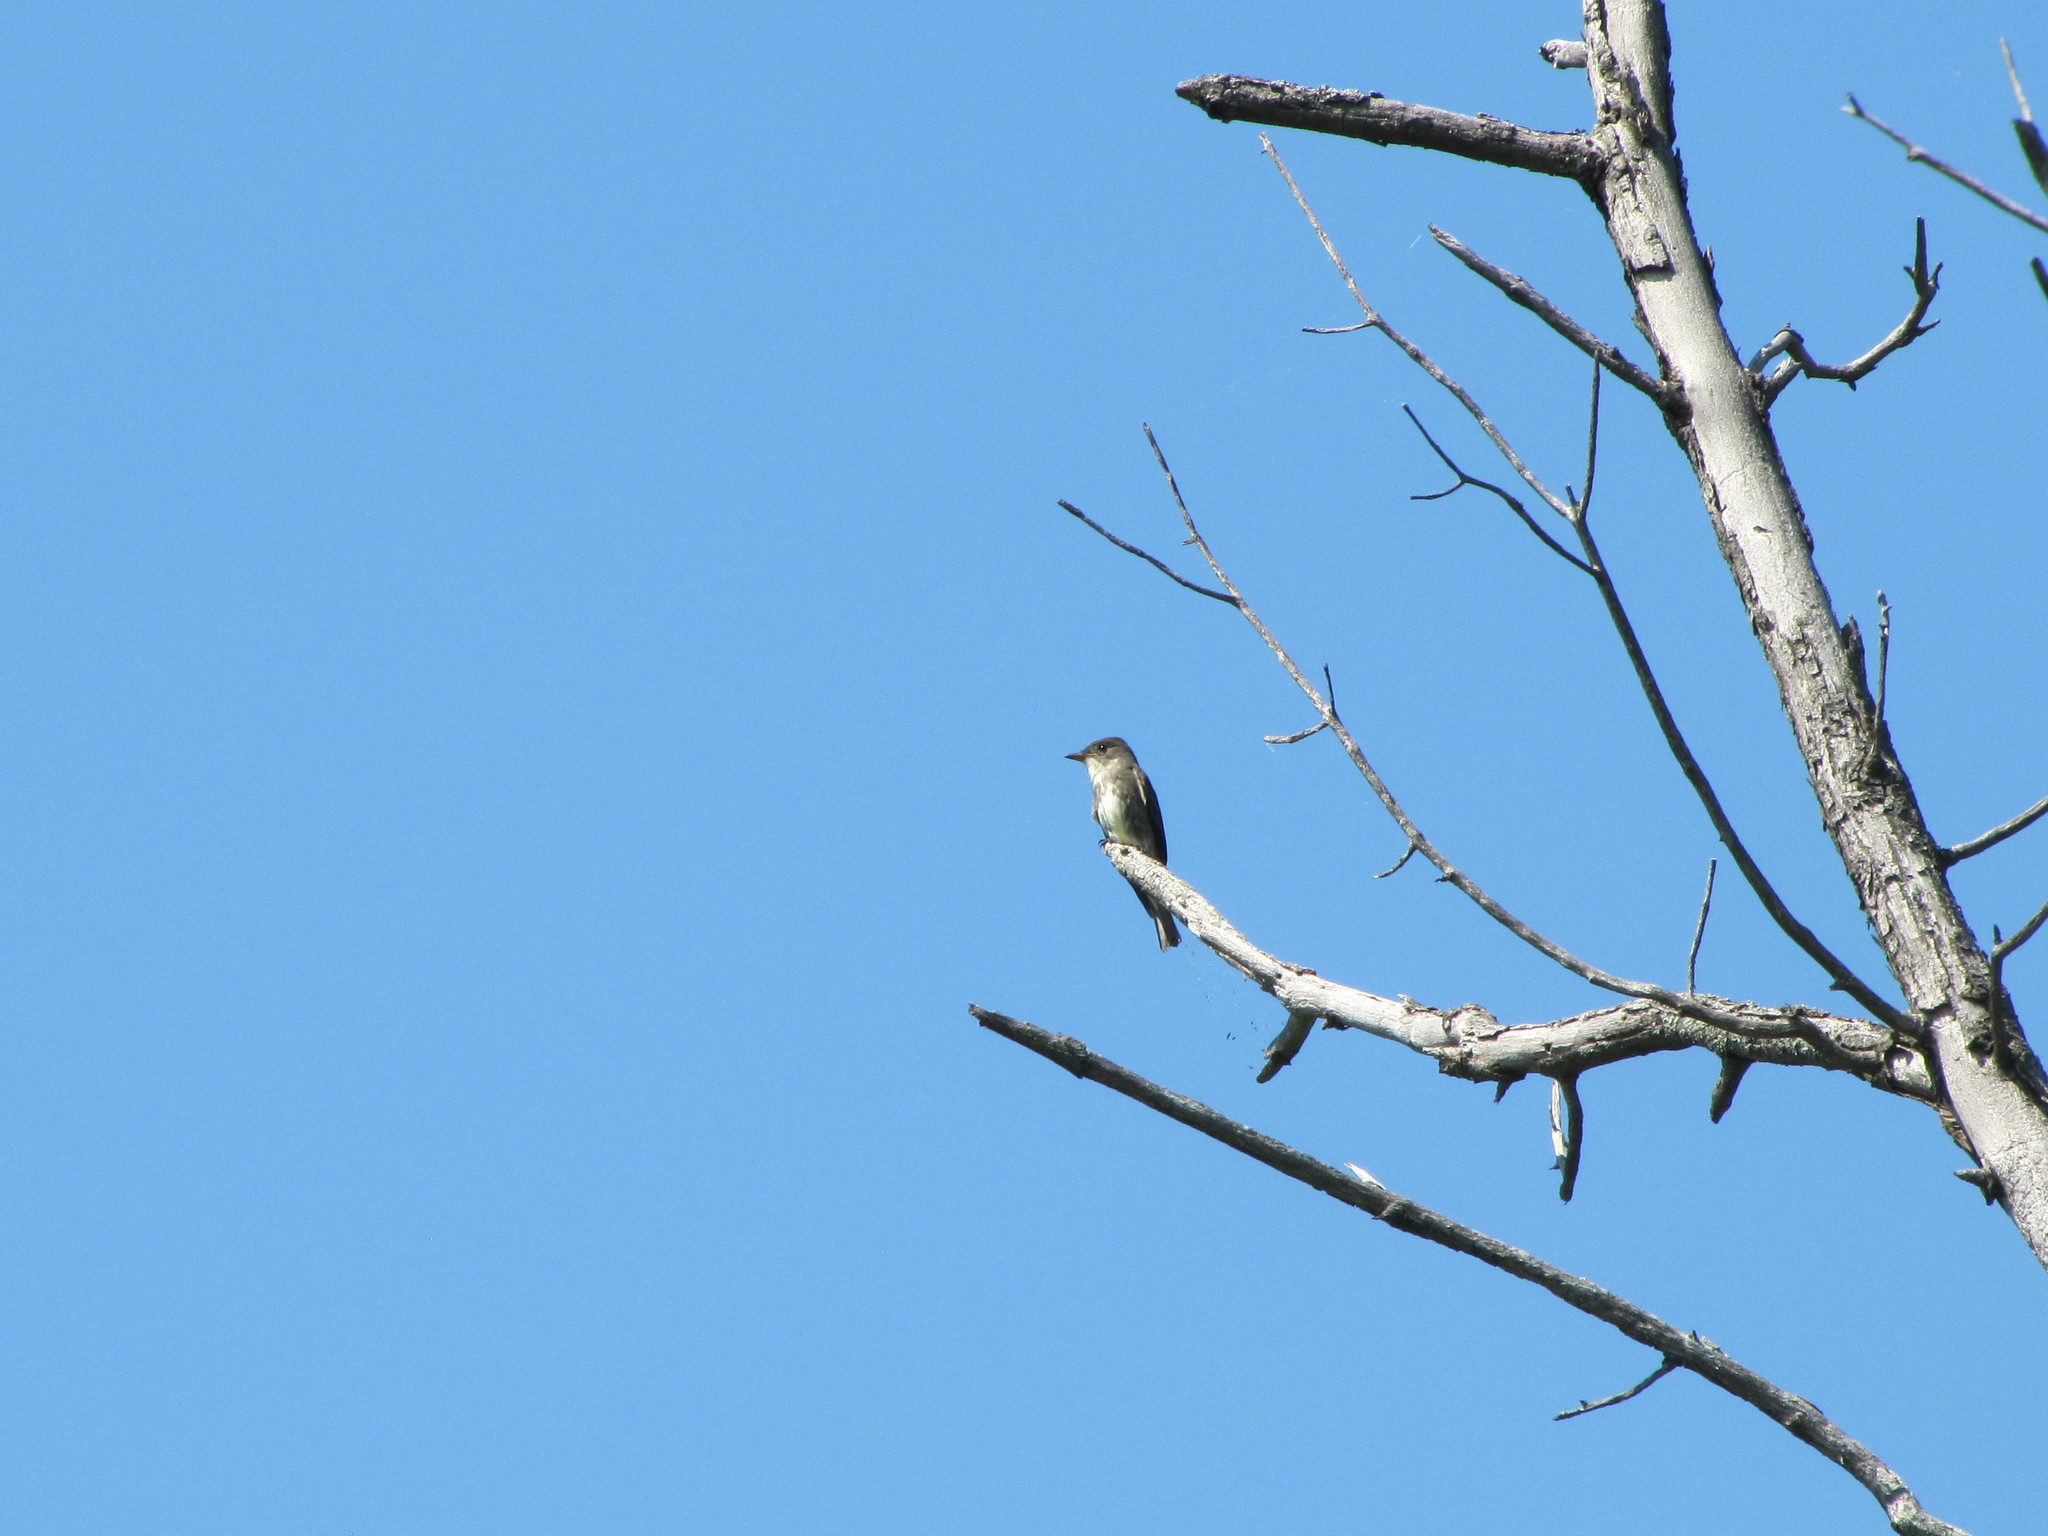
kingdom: Animalia
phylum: Chordata
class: Aves
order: Passeriformes
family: Tyrannidae
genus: Contopus
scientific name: Contopus cooperi
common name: Olive-sided flycatcher
